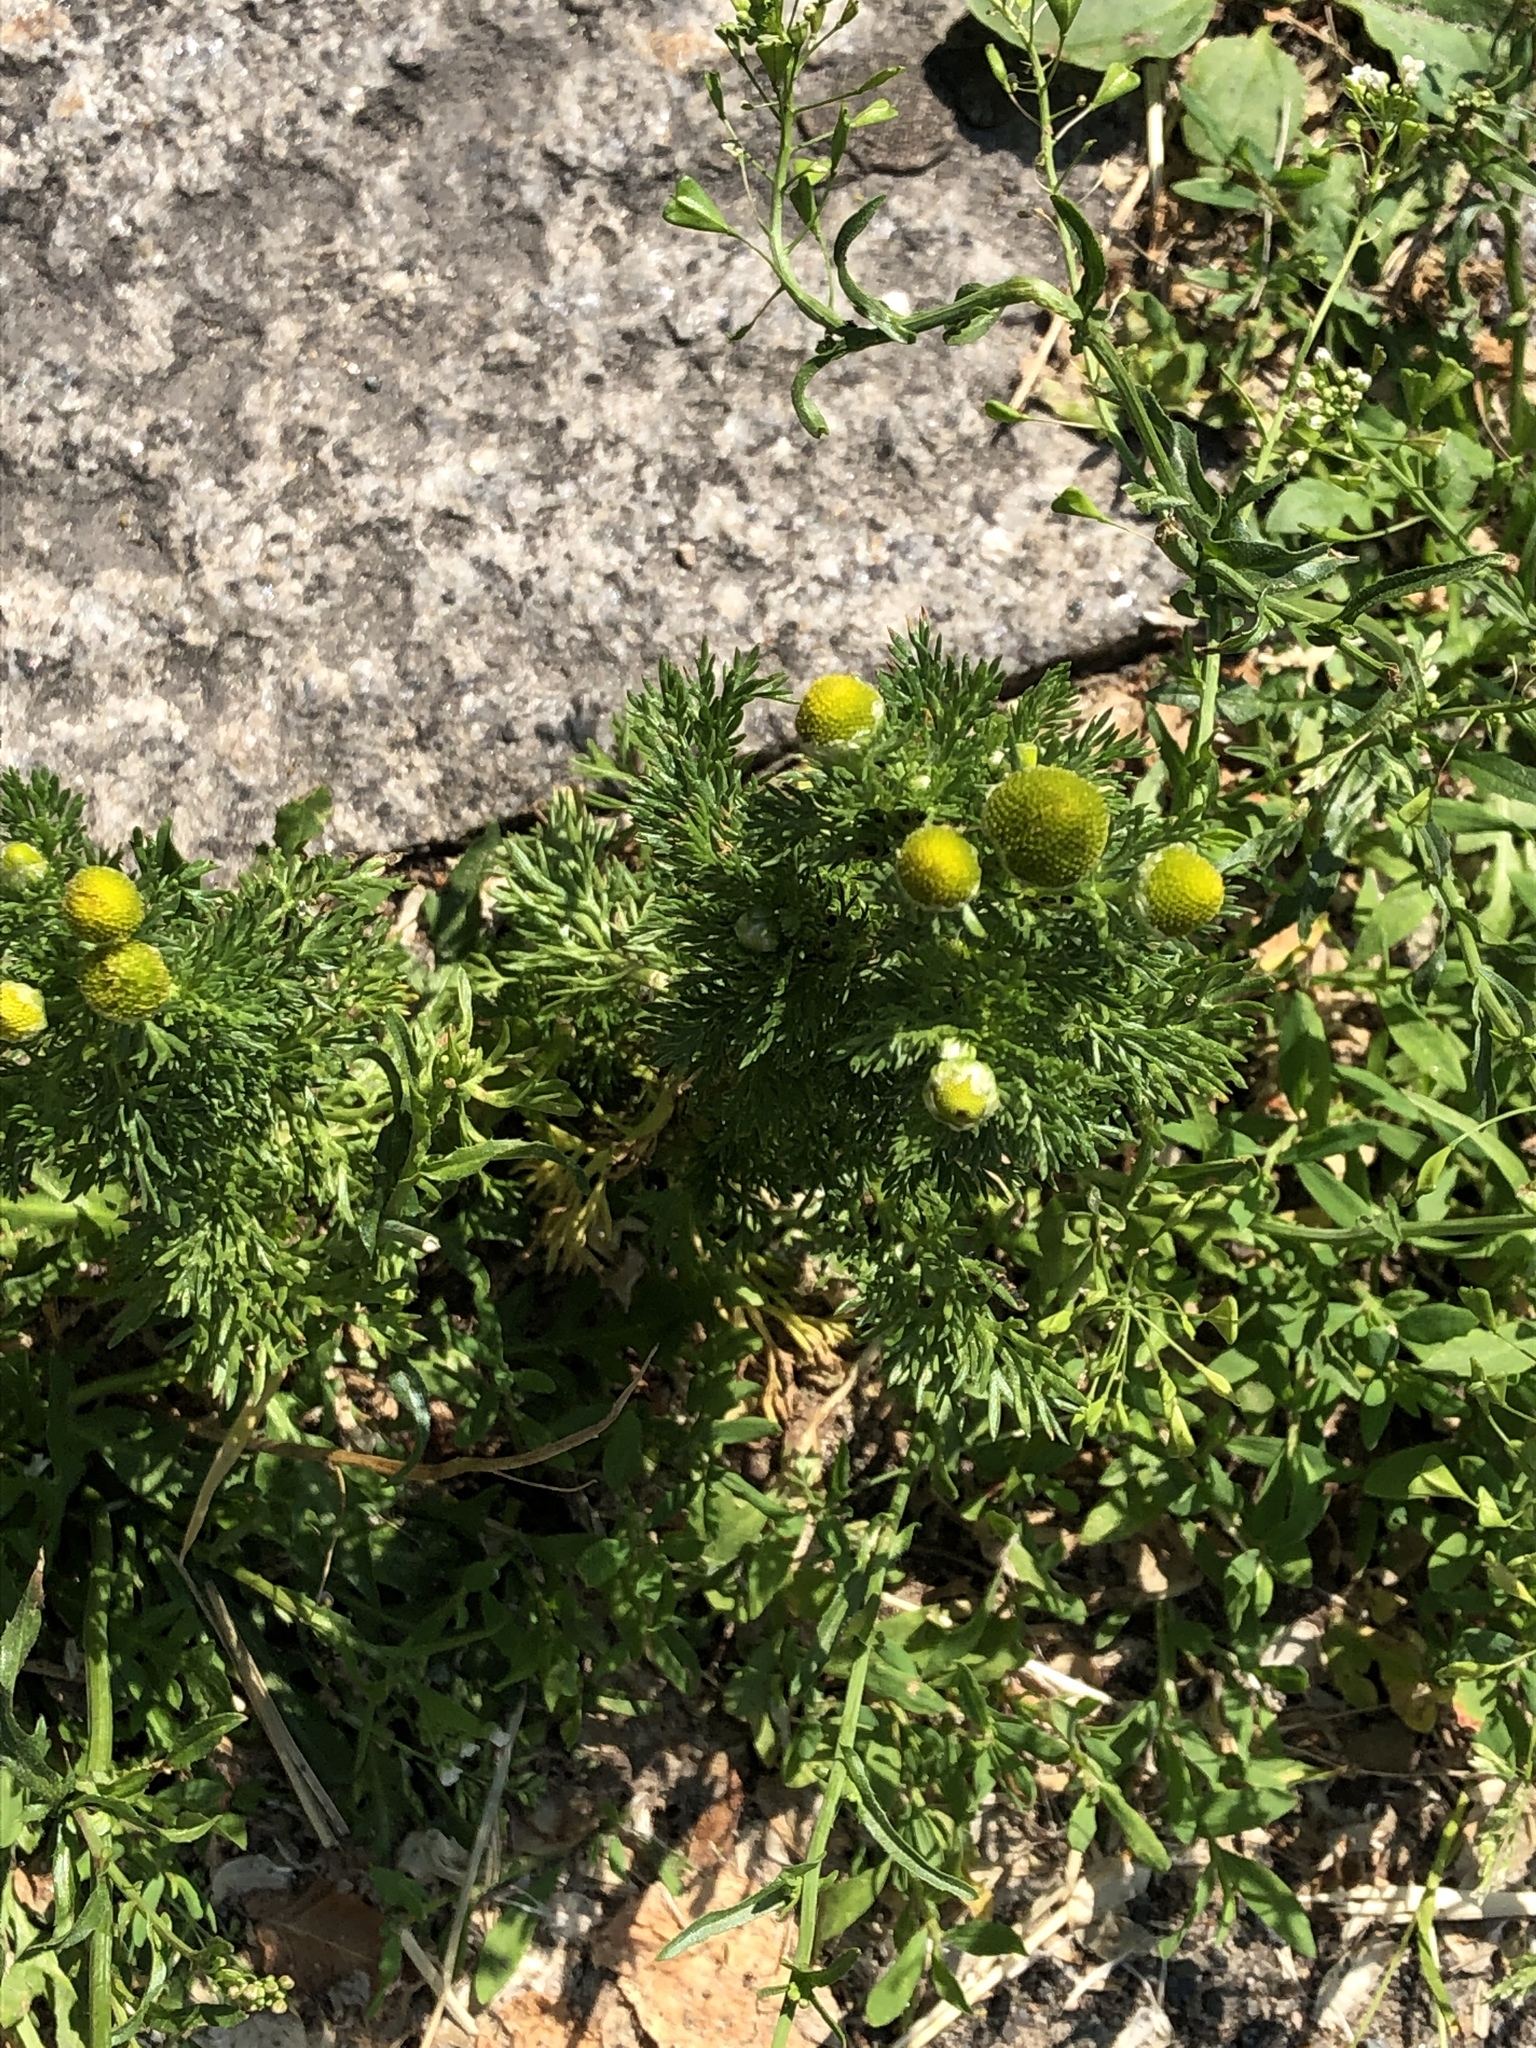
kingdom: Plantae
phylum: Tracheophyta
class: Magnoliopsida
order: Asterales
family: Asteraceae
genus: Matricaria
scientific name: Matricaria discoidea
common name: Disc mayweed
